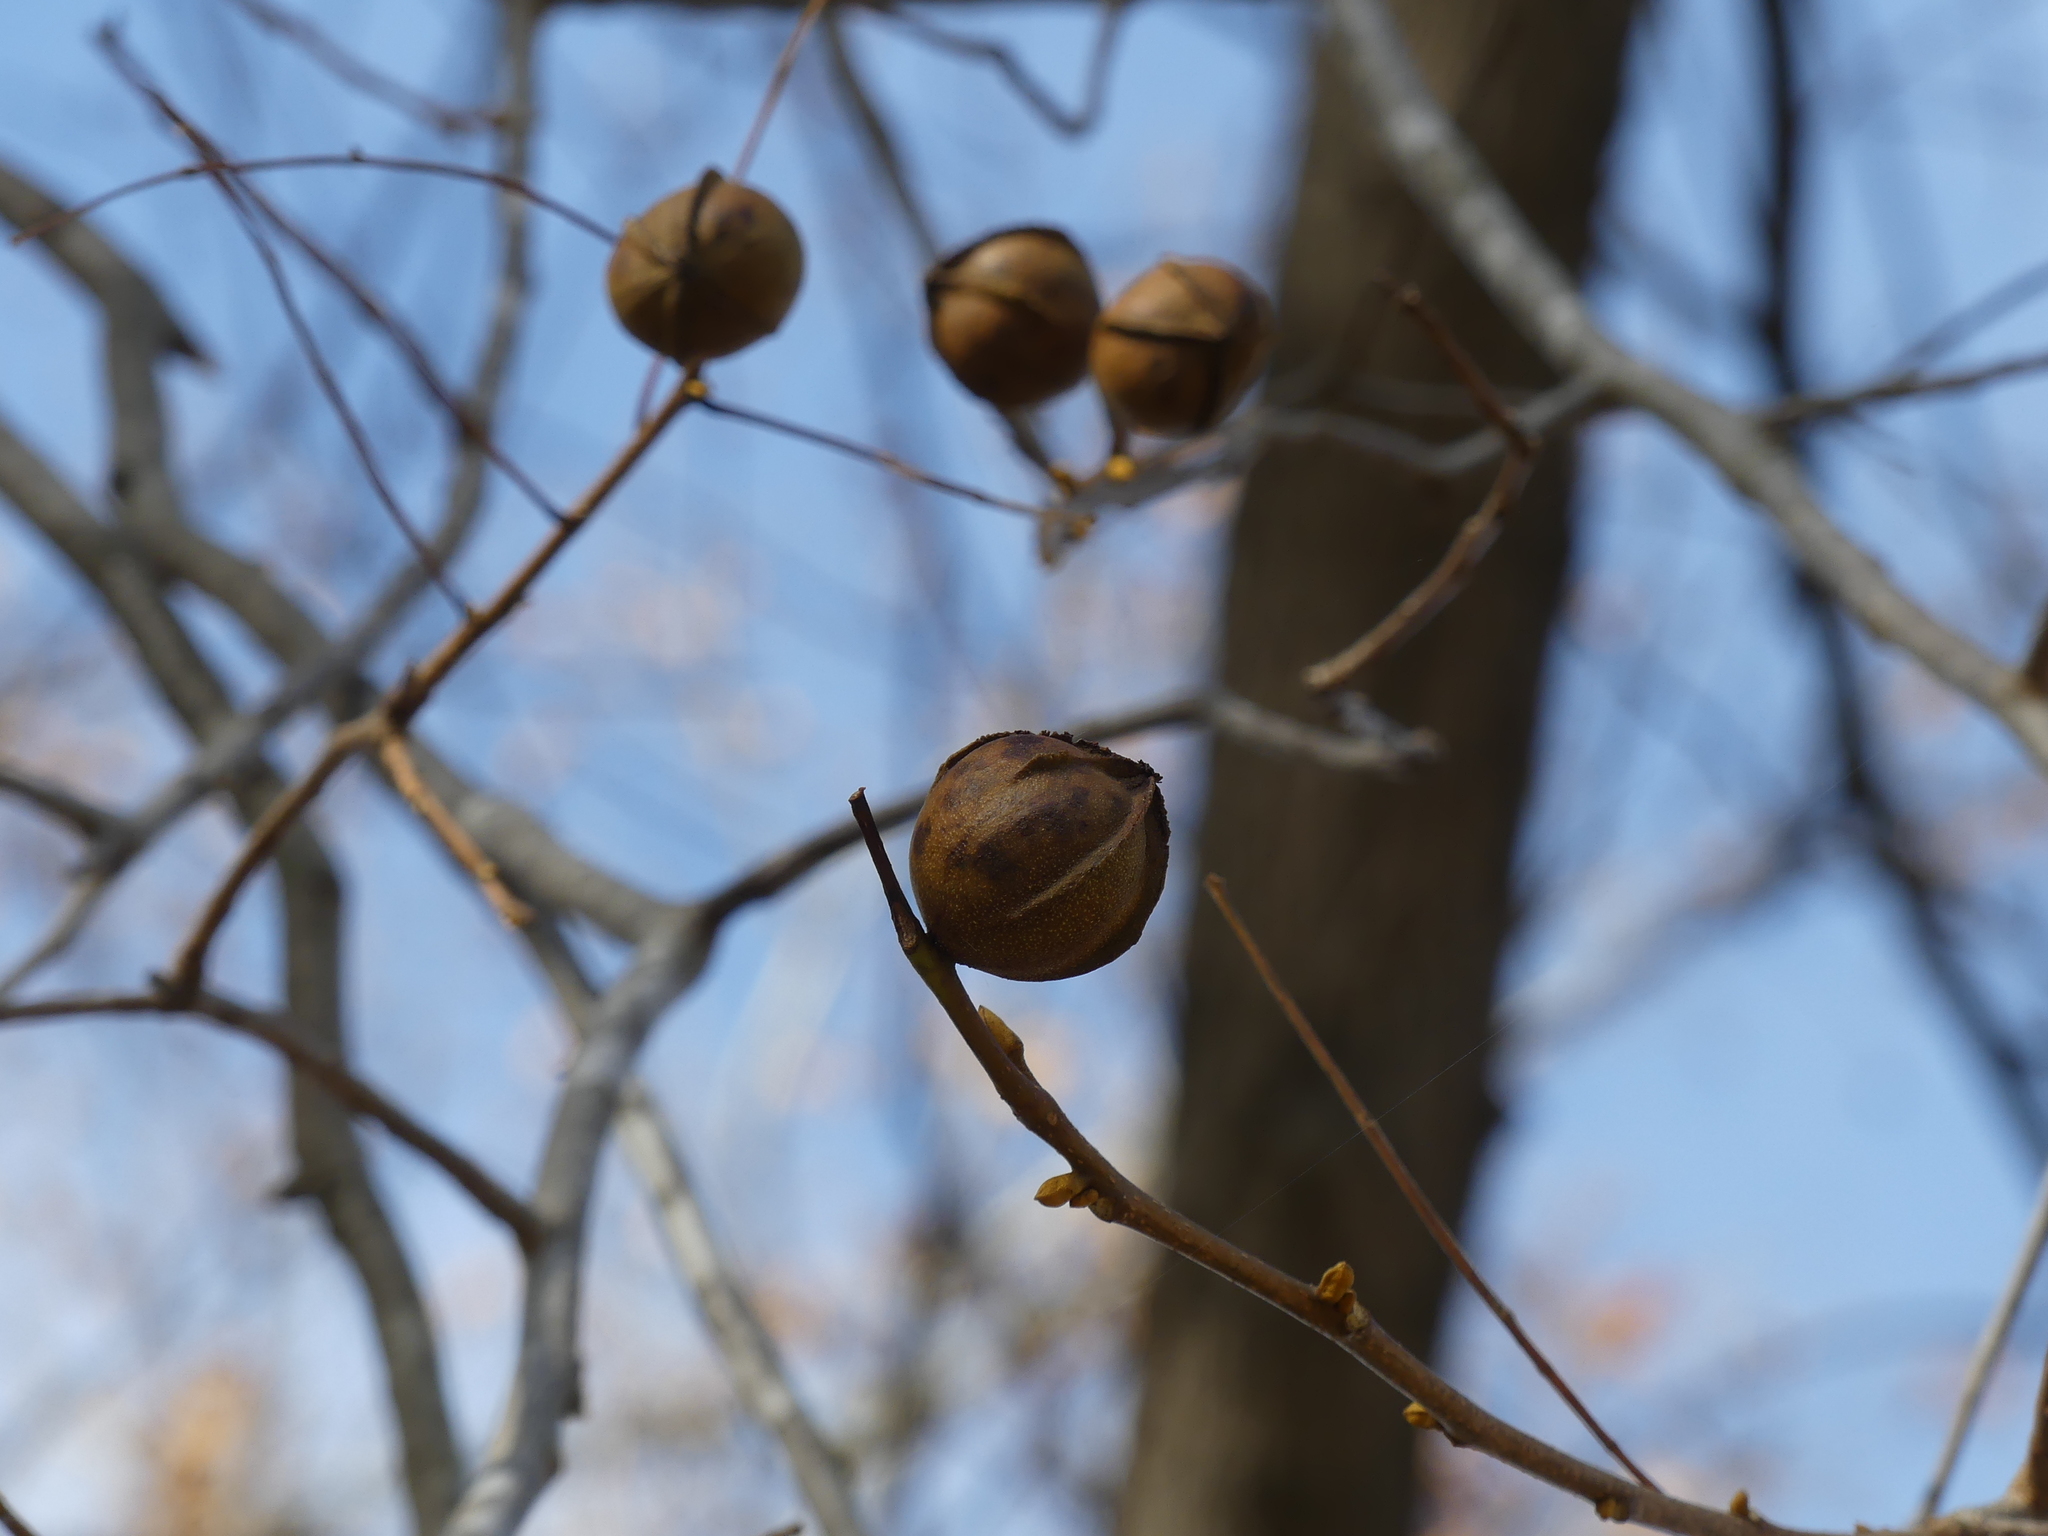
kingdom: Plantae
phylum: Tracheophyta
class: Magnoliopsida
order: Fagales
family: Juglandaceae
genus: Carya
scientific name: Carya cordiformis
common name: Bitternut hickory
